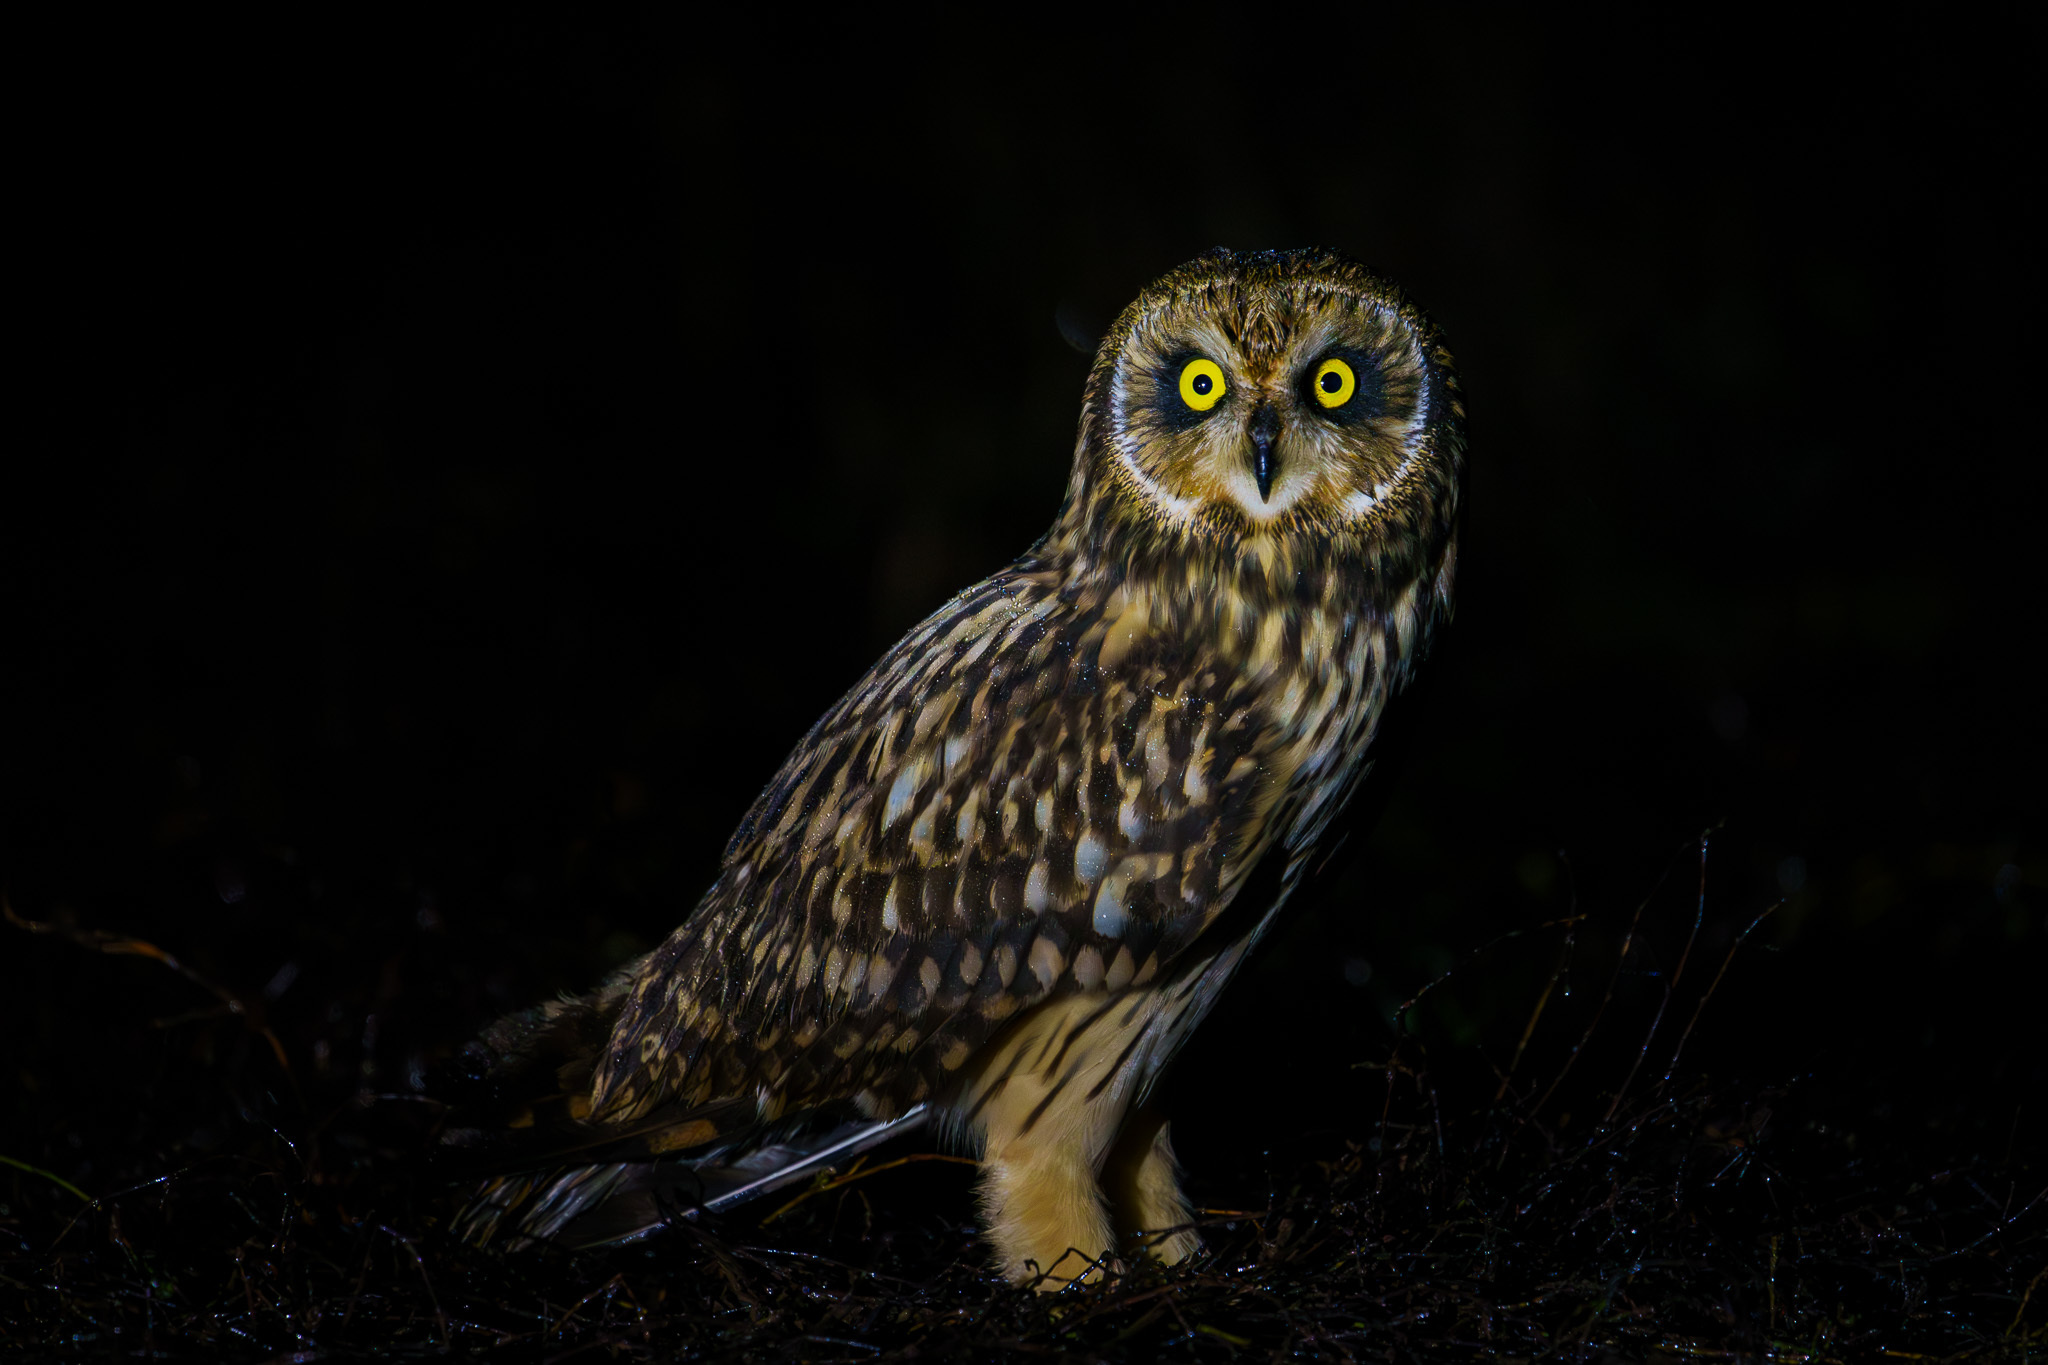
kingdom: Animalia
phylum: Chordata
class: Aves
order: Strigiformes
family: Strigidae
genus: Asio
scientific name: Asio flammeus
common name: Short-eared owl
